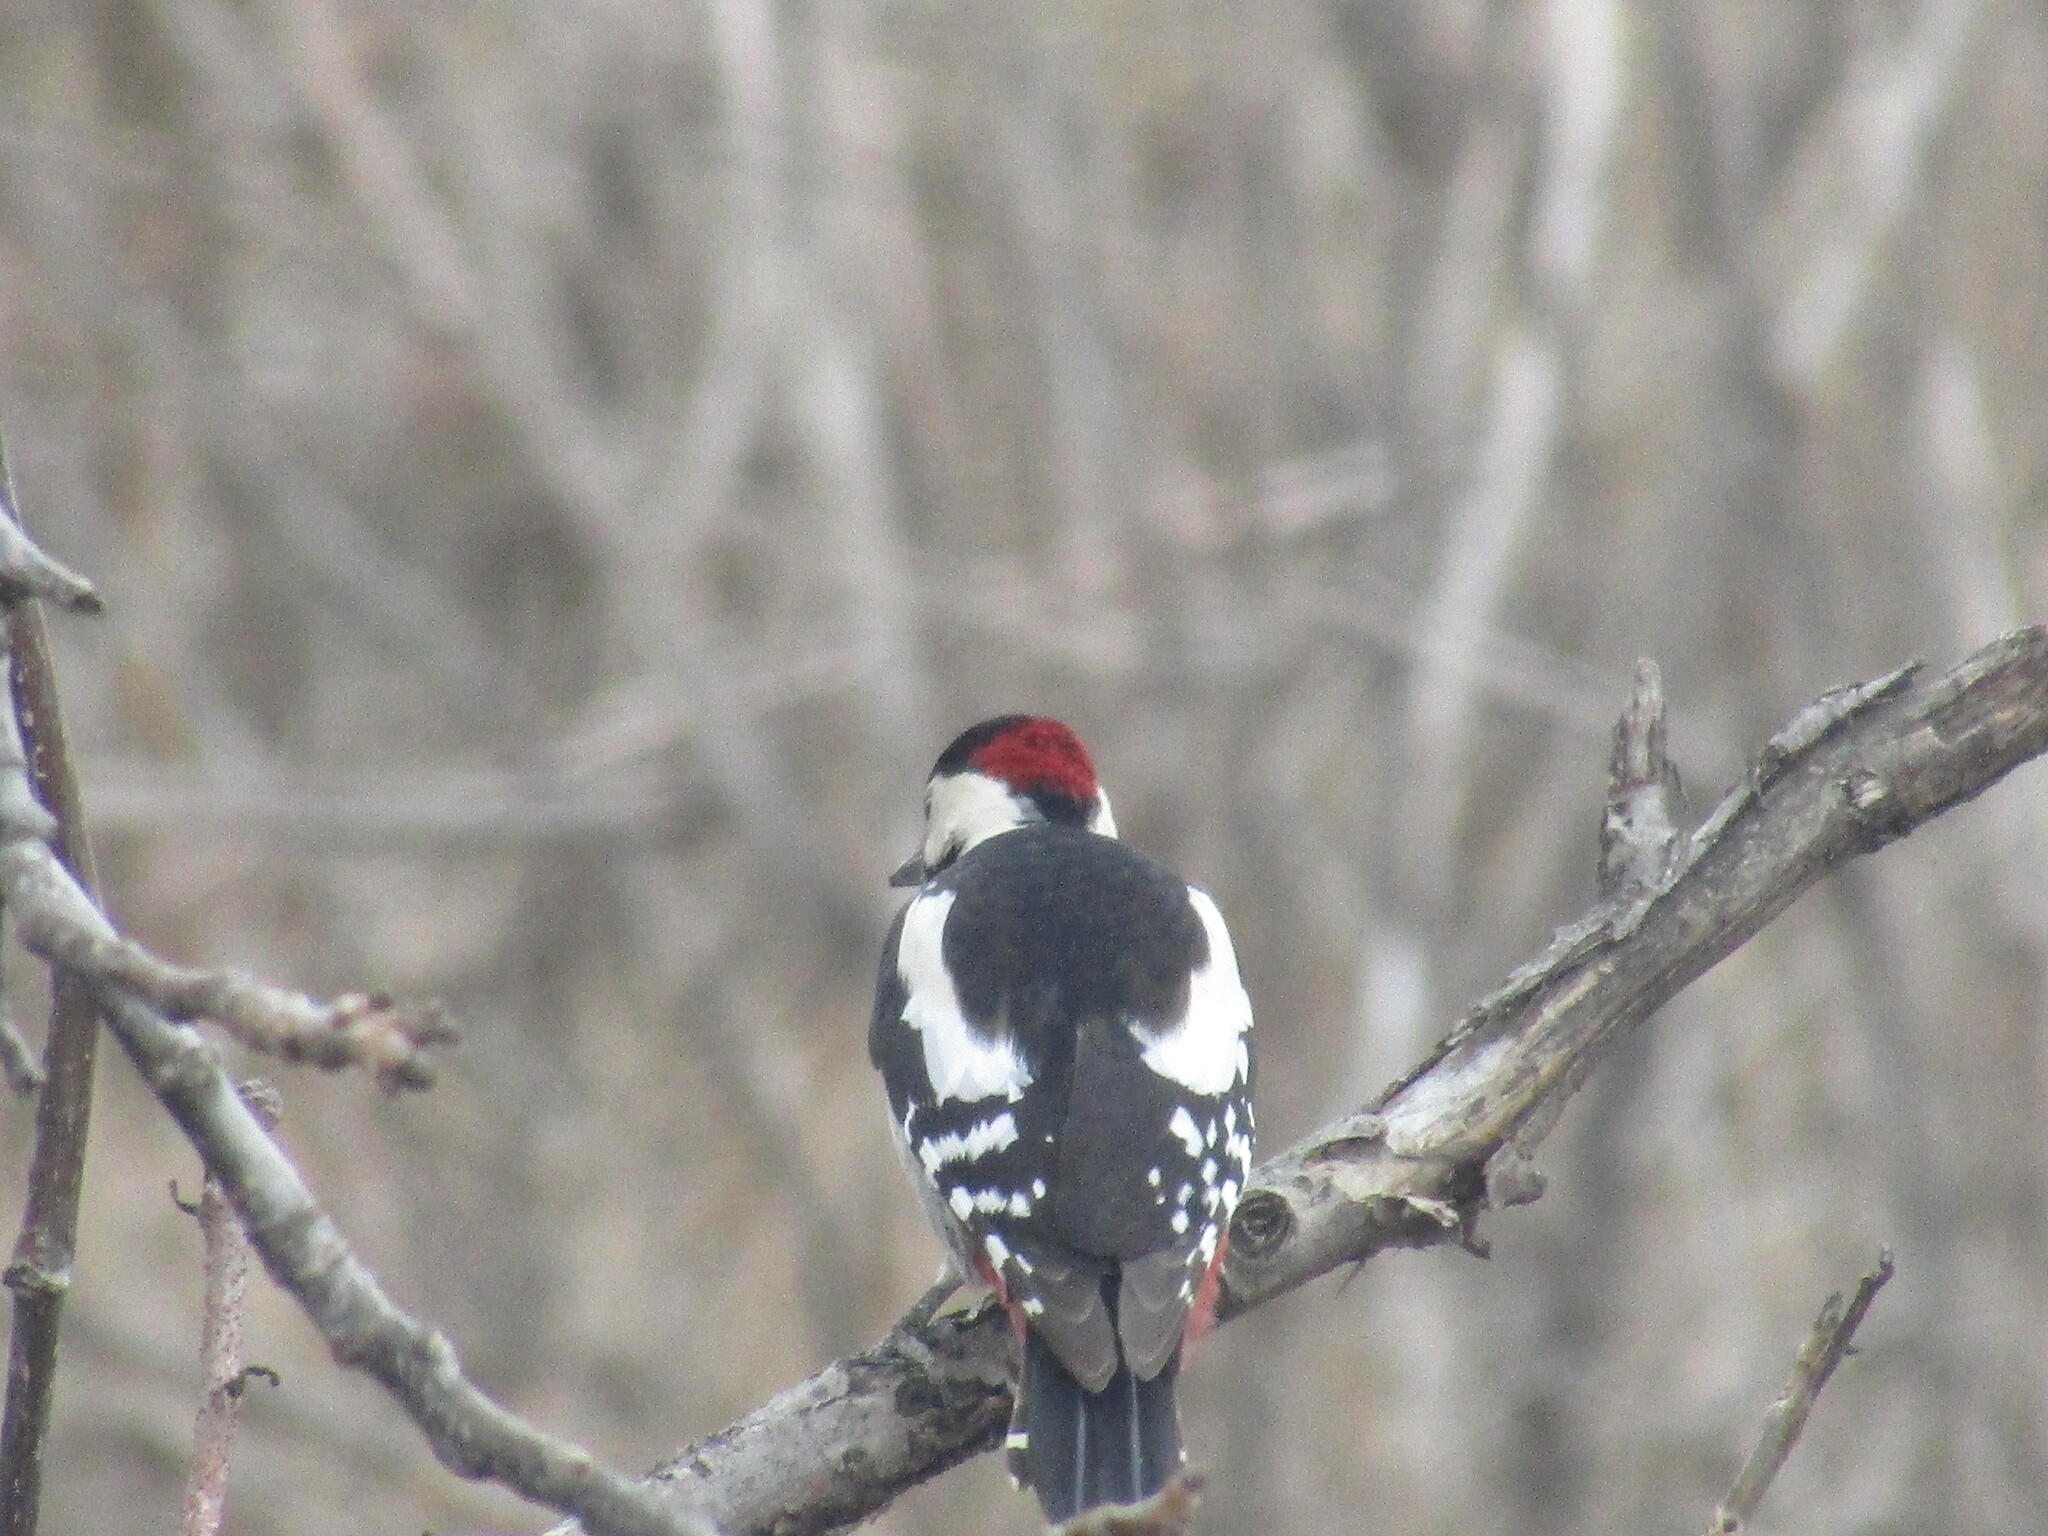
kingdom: Animalia
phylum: Chordata
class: Aves
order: Piciformes
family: Picidae
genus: Dendrocopos
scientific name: Dendrocopos syriacus
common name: Syrian woodpecker
